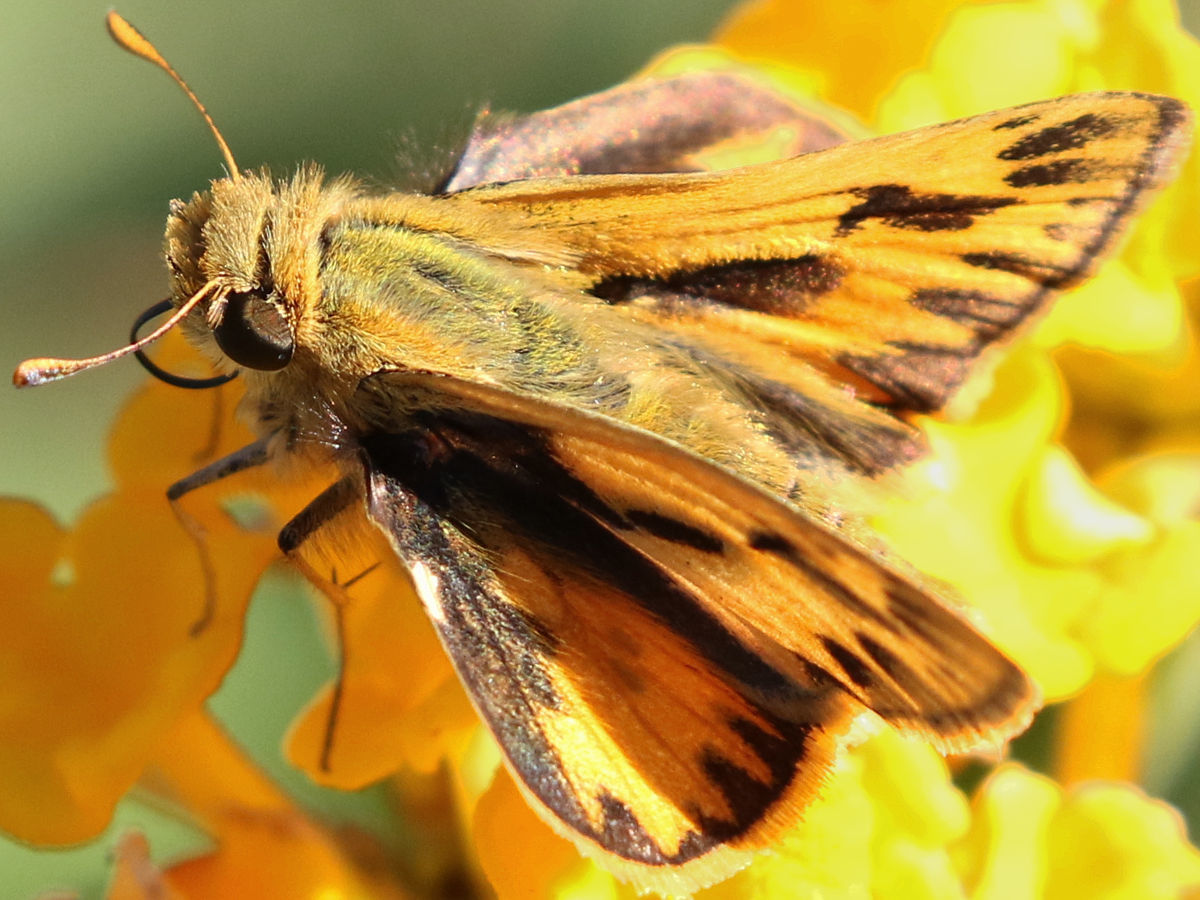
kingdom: Animalia
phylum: Arthropoda
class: Insecta
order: Lepidoptera
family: Hesperiidae
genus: Hylephila
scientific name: Hylephila phyleus
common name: Fiery skipper
